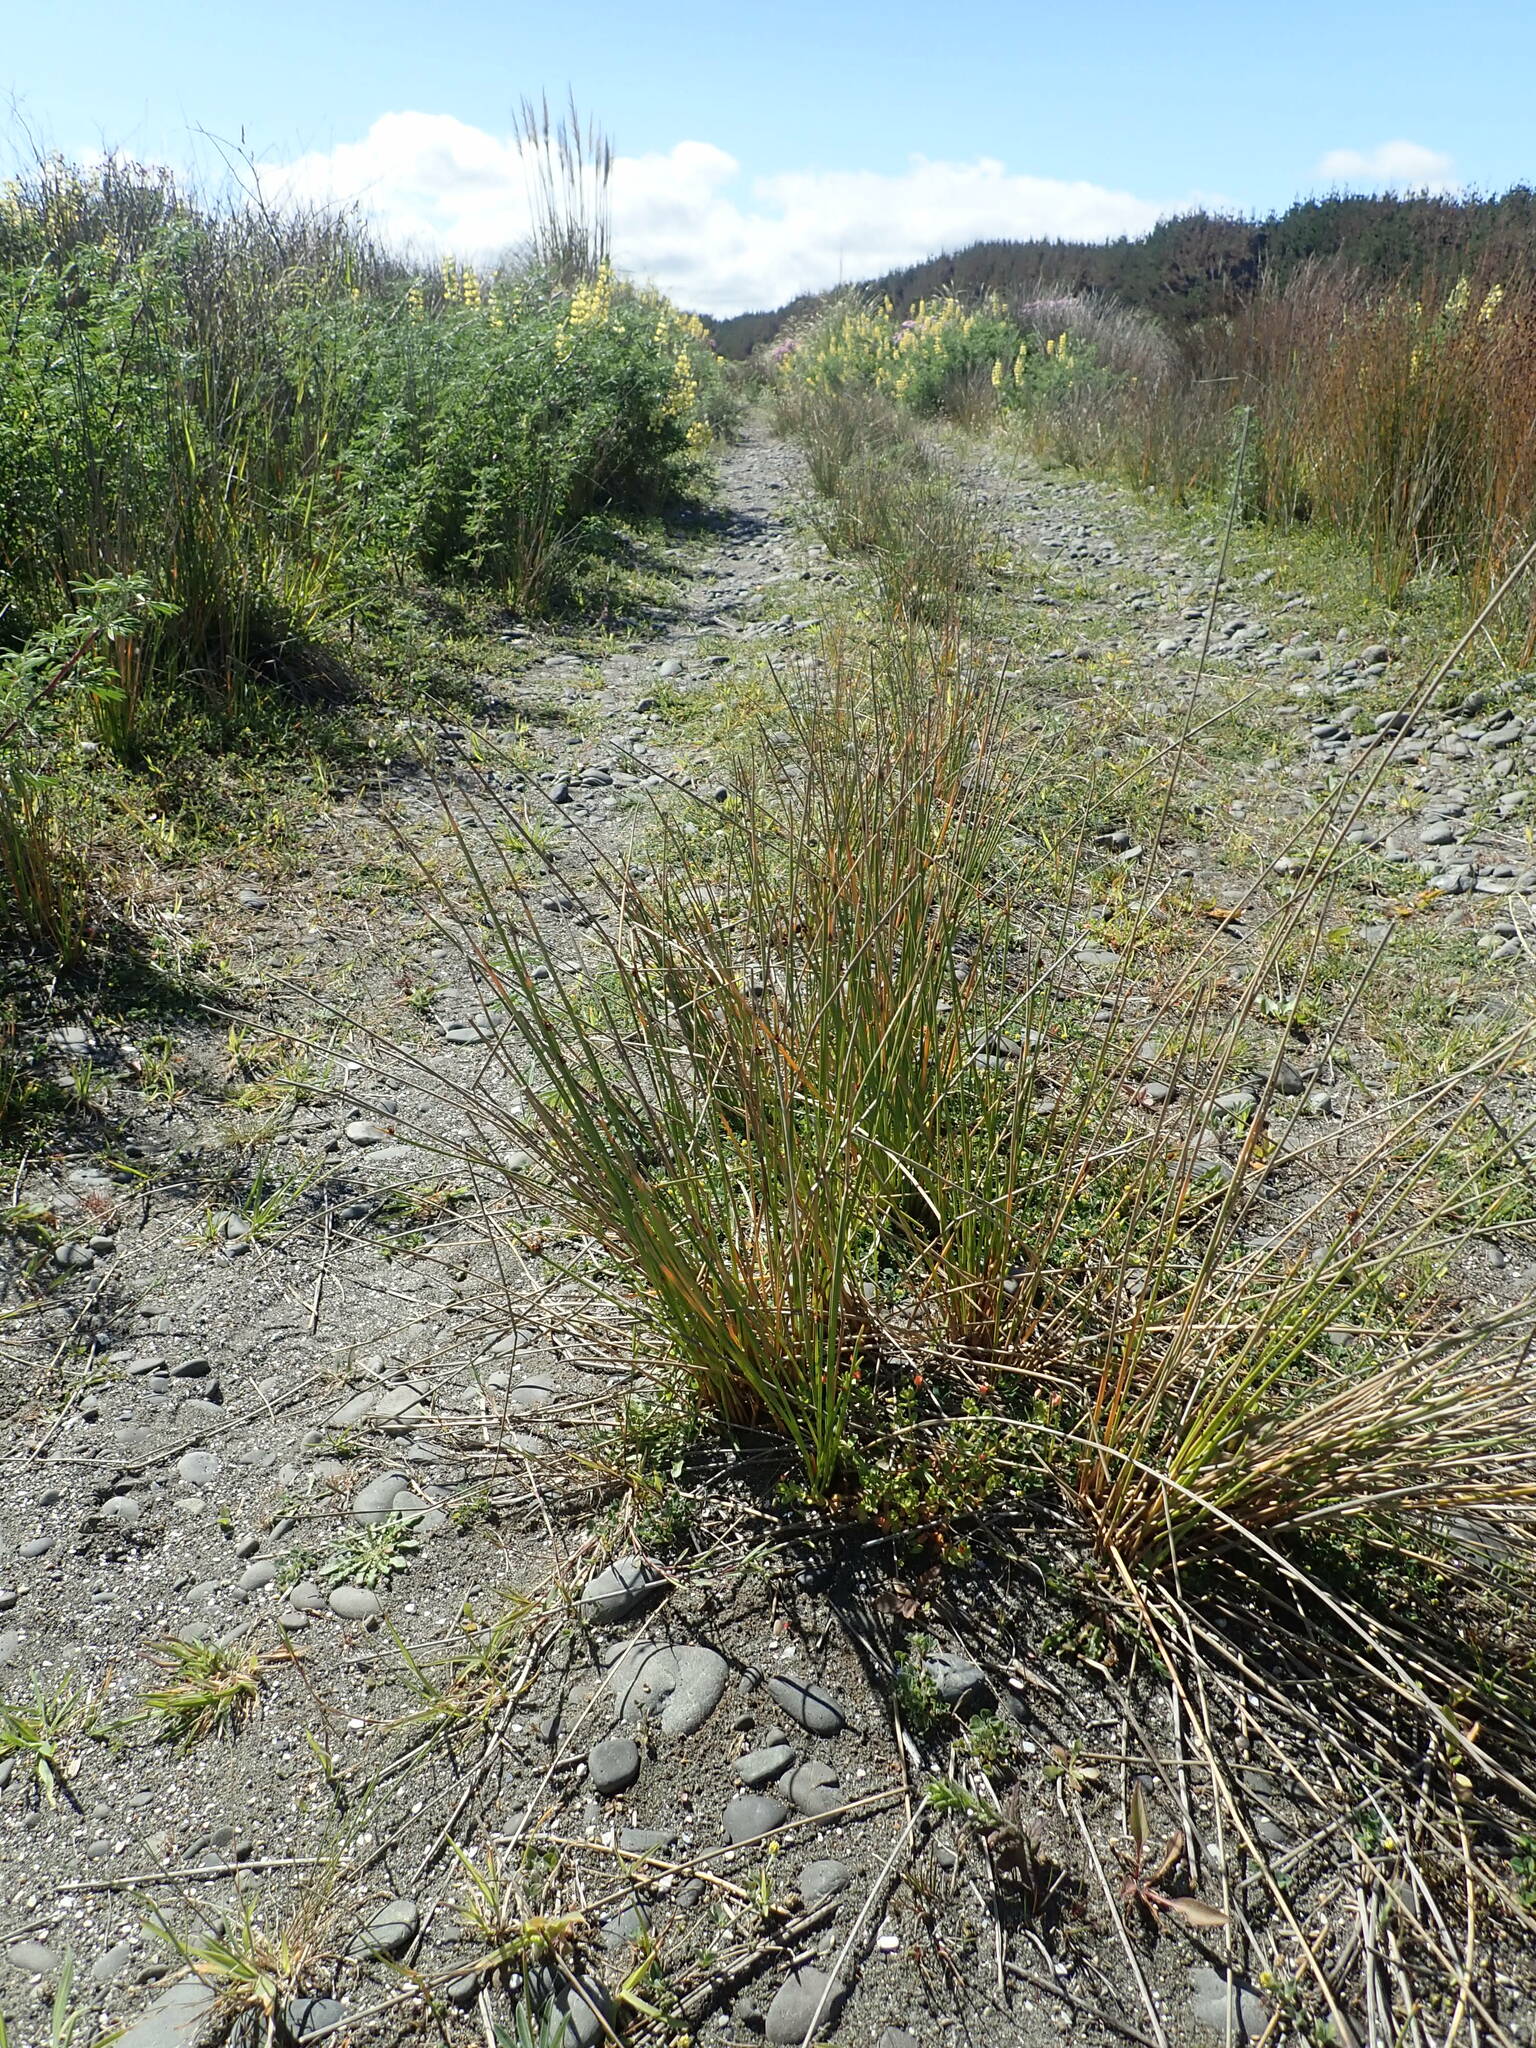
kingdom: Plantae
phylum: Tracheophyta
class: Magnoliopsida
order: Ericales
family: Primulaceae
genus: Lysimachia
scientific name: Lysimachia arvensis
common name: Scarlet pimpernel
